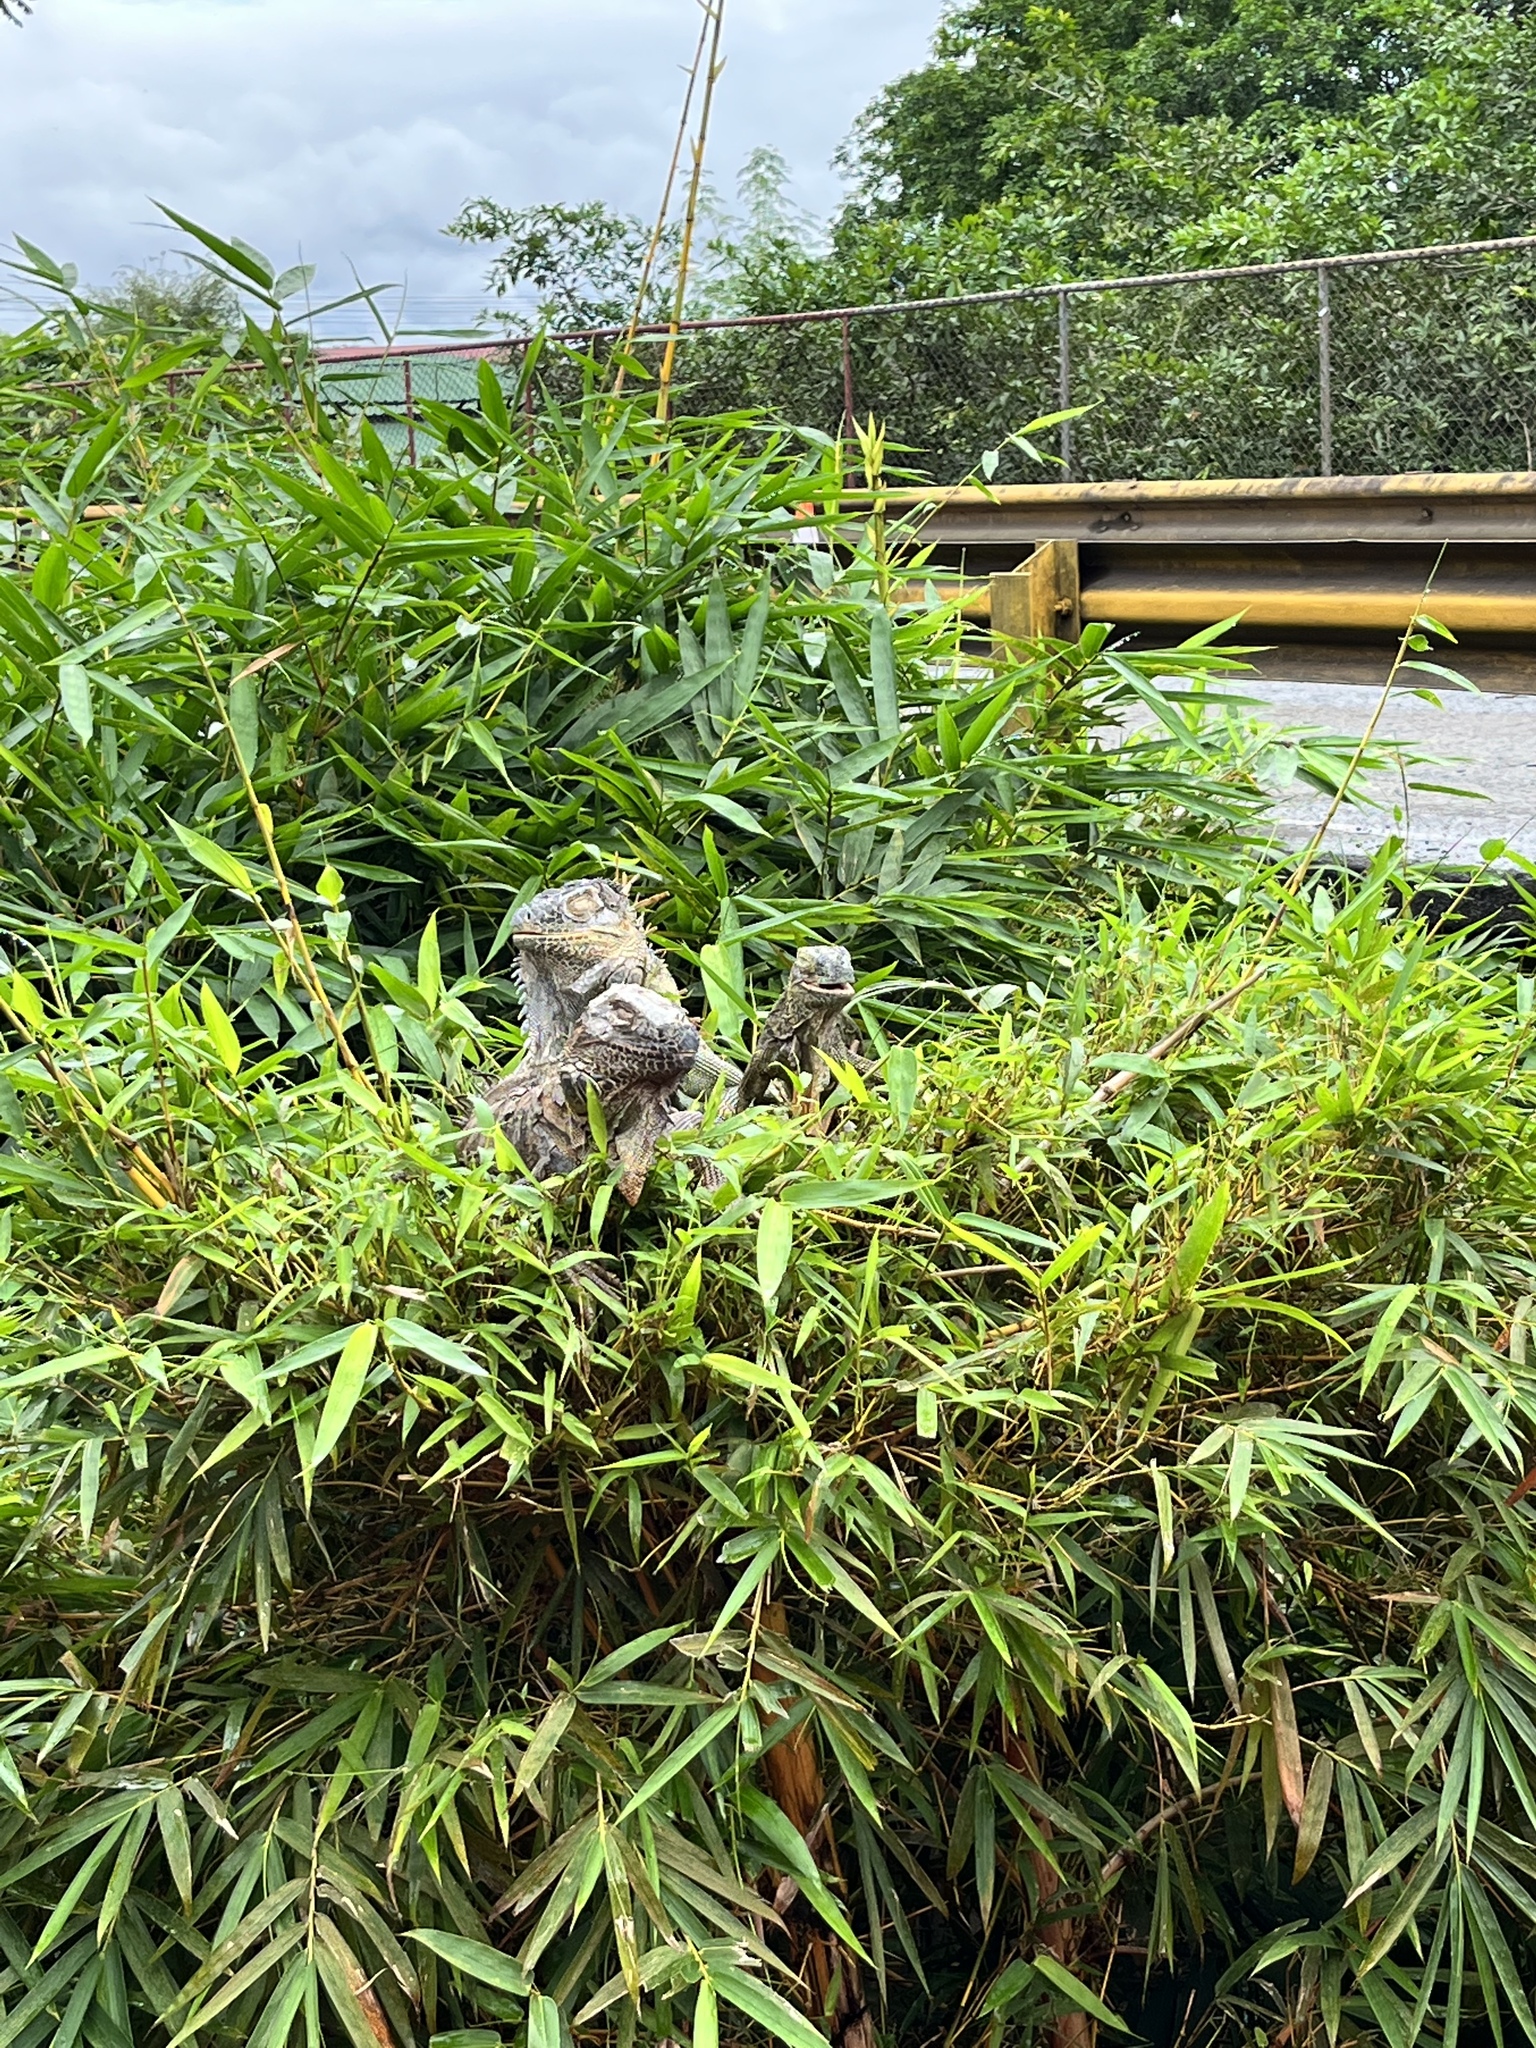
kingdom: Animalia
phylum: Chordata
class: Squamata
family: Iguanidae
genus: Iguana
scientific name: Iguana iguana
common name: Green iguana
